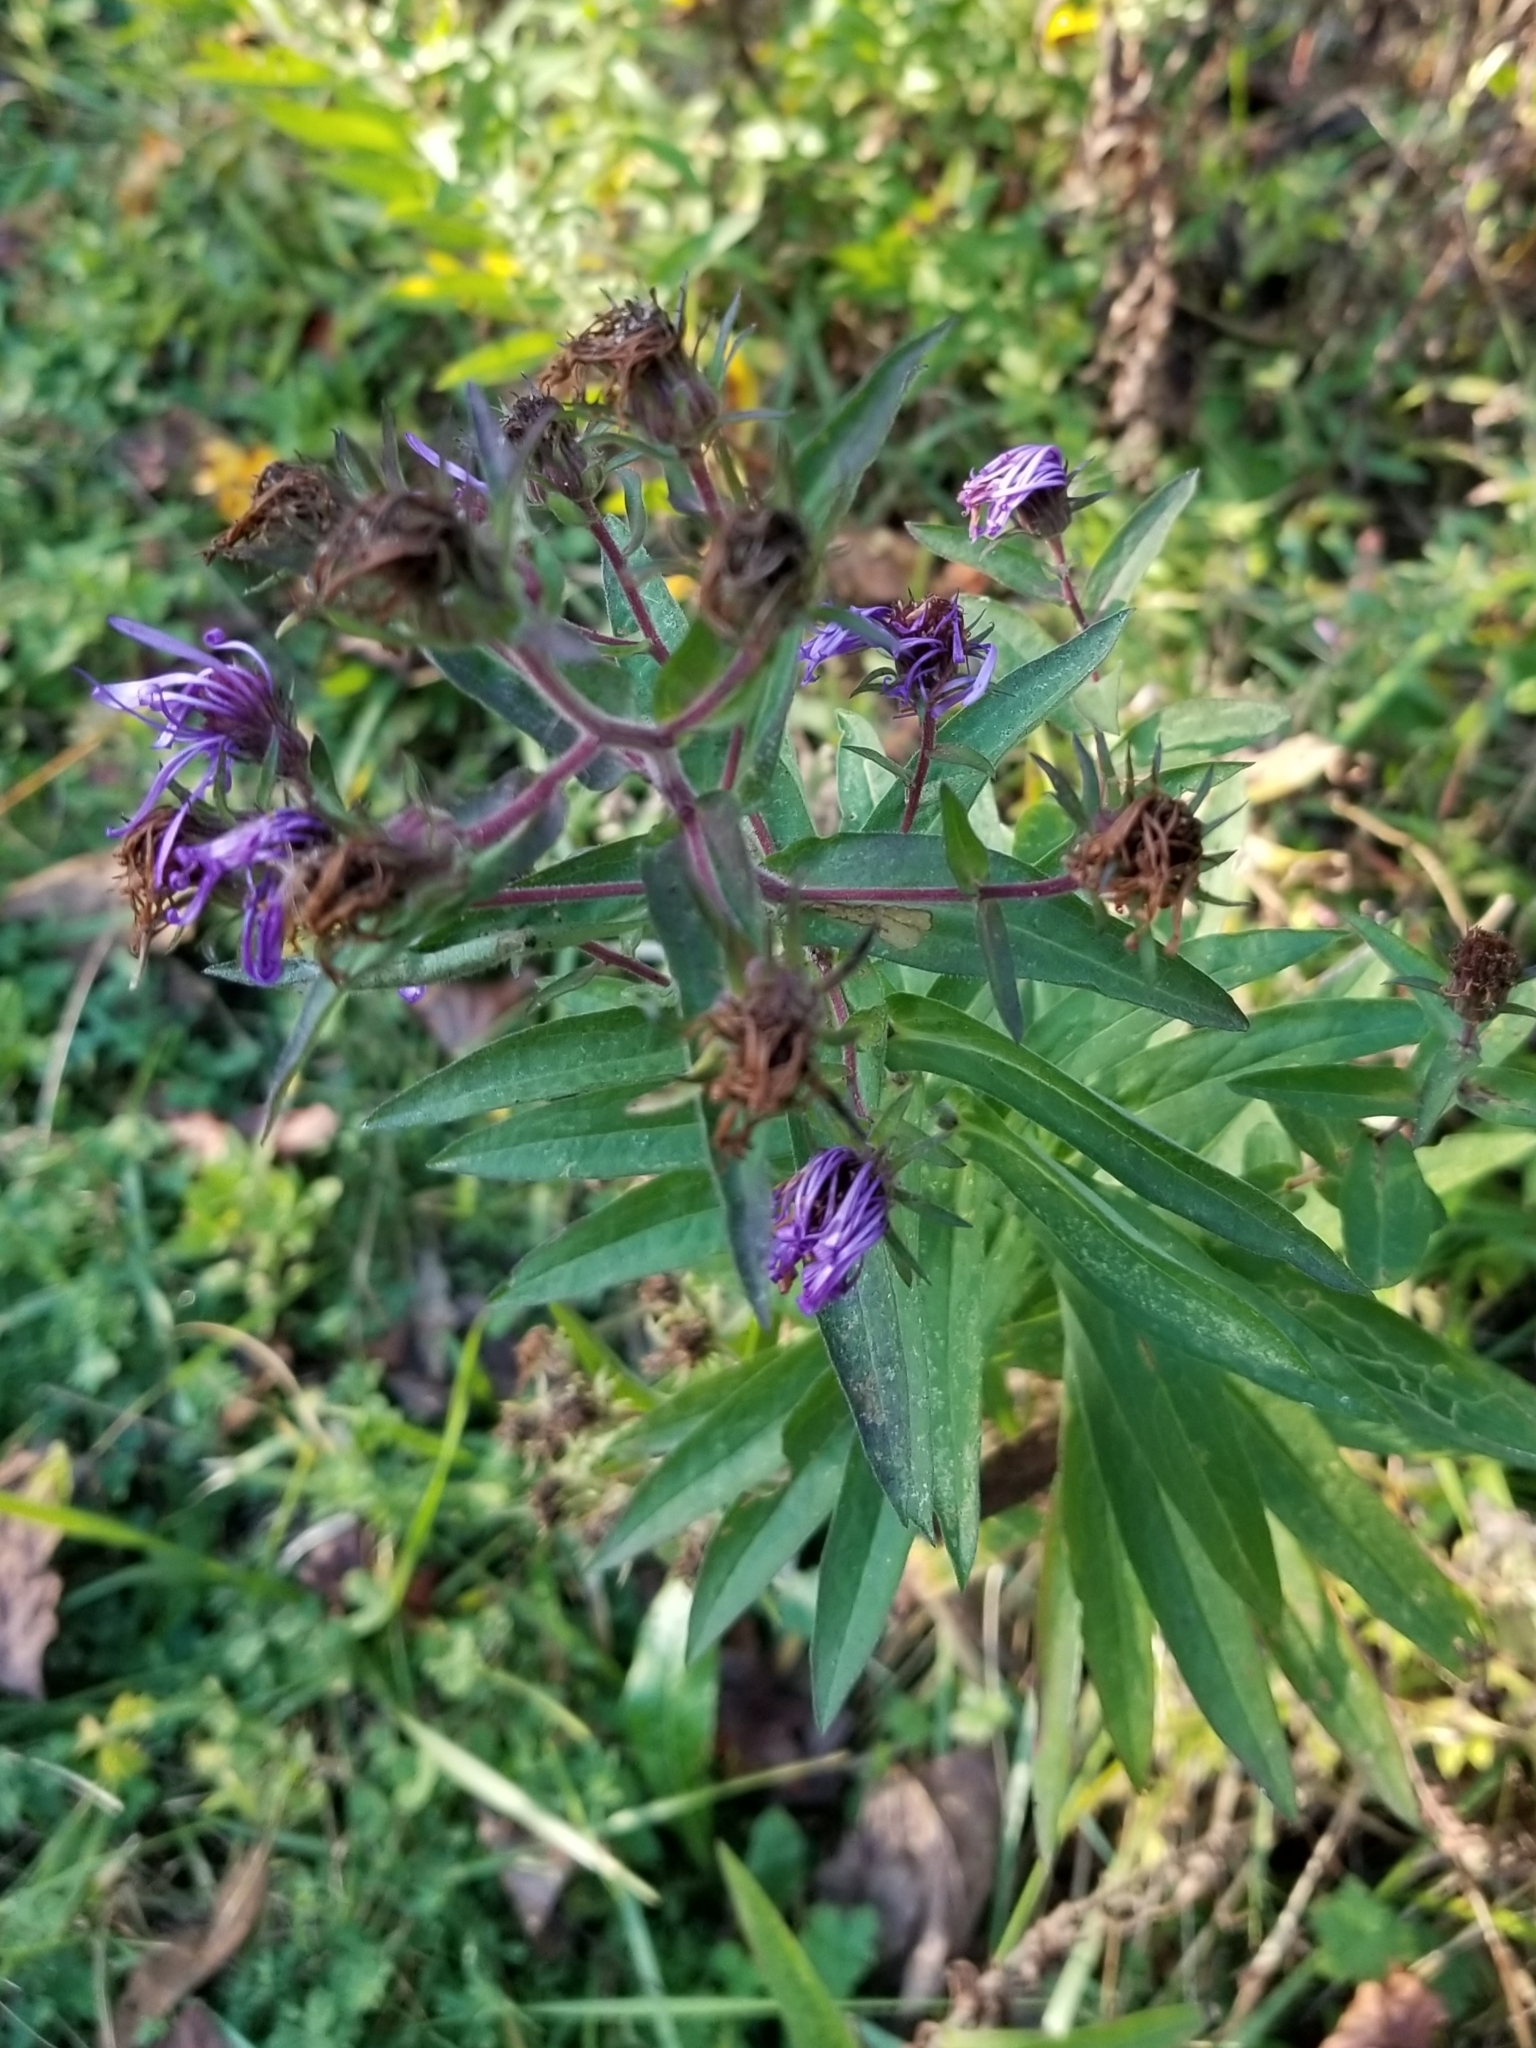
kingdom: Plantae
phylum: Tracheophyta
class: Magnoliopsida
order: Asterales
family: Asteraceae
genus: Symphyotrichum
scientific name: Symphyotrichum novae-angliae
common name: Michaelmas daisy
